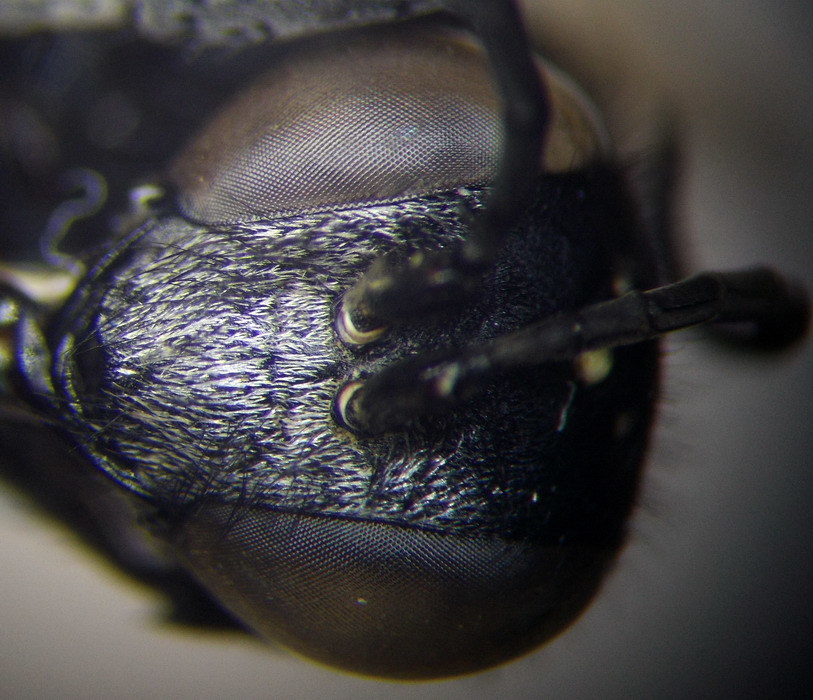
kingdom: Animalia
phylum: Arthropoda
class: Insecta
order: Hymenoptera
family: Sphecidae
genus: Prionyx
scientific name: Prionyx subfuscatus
